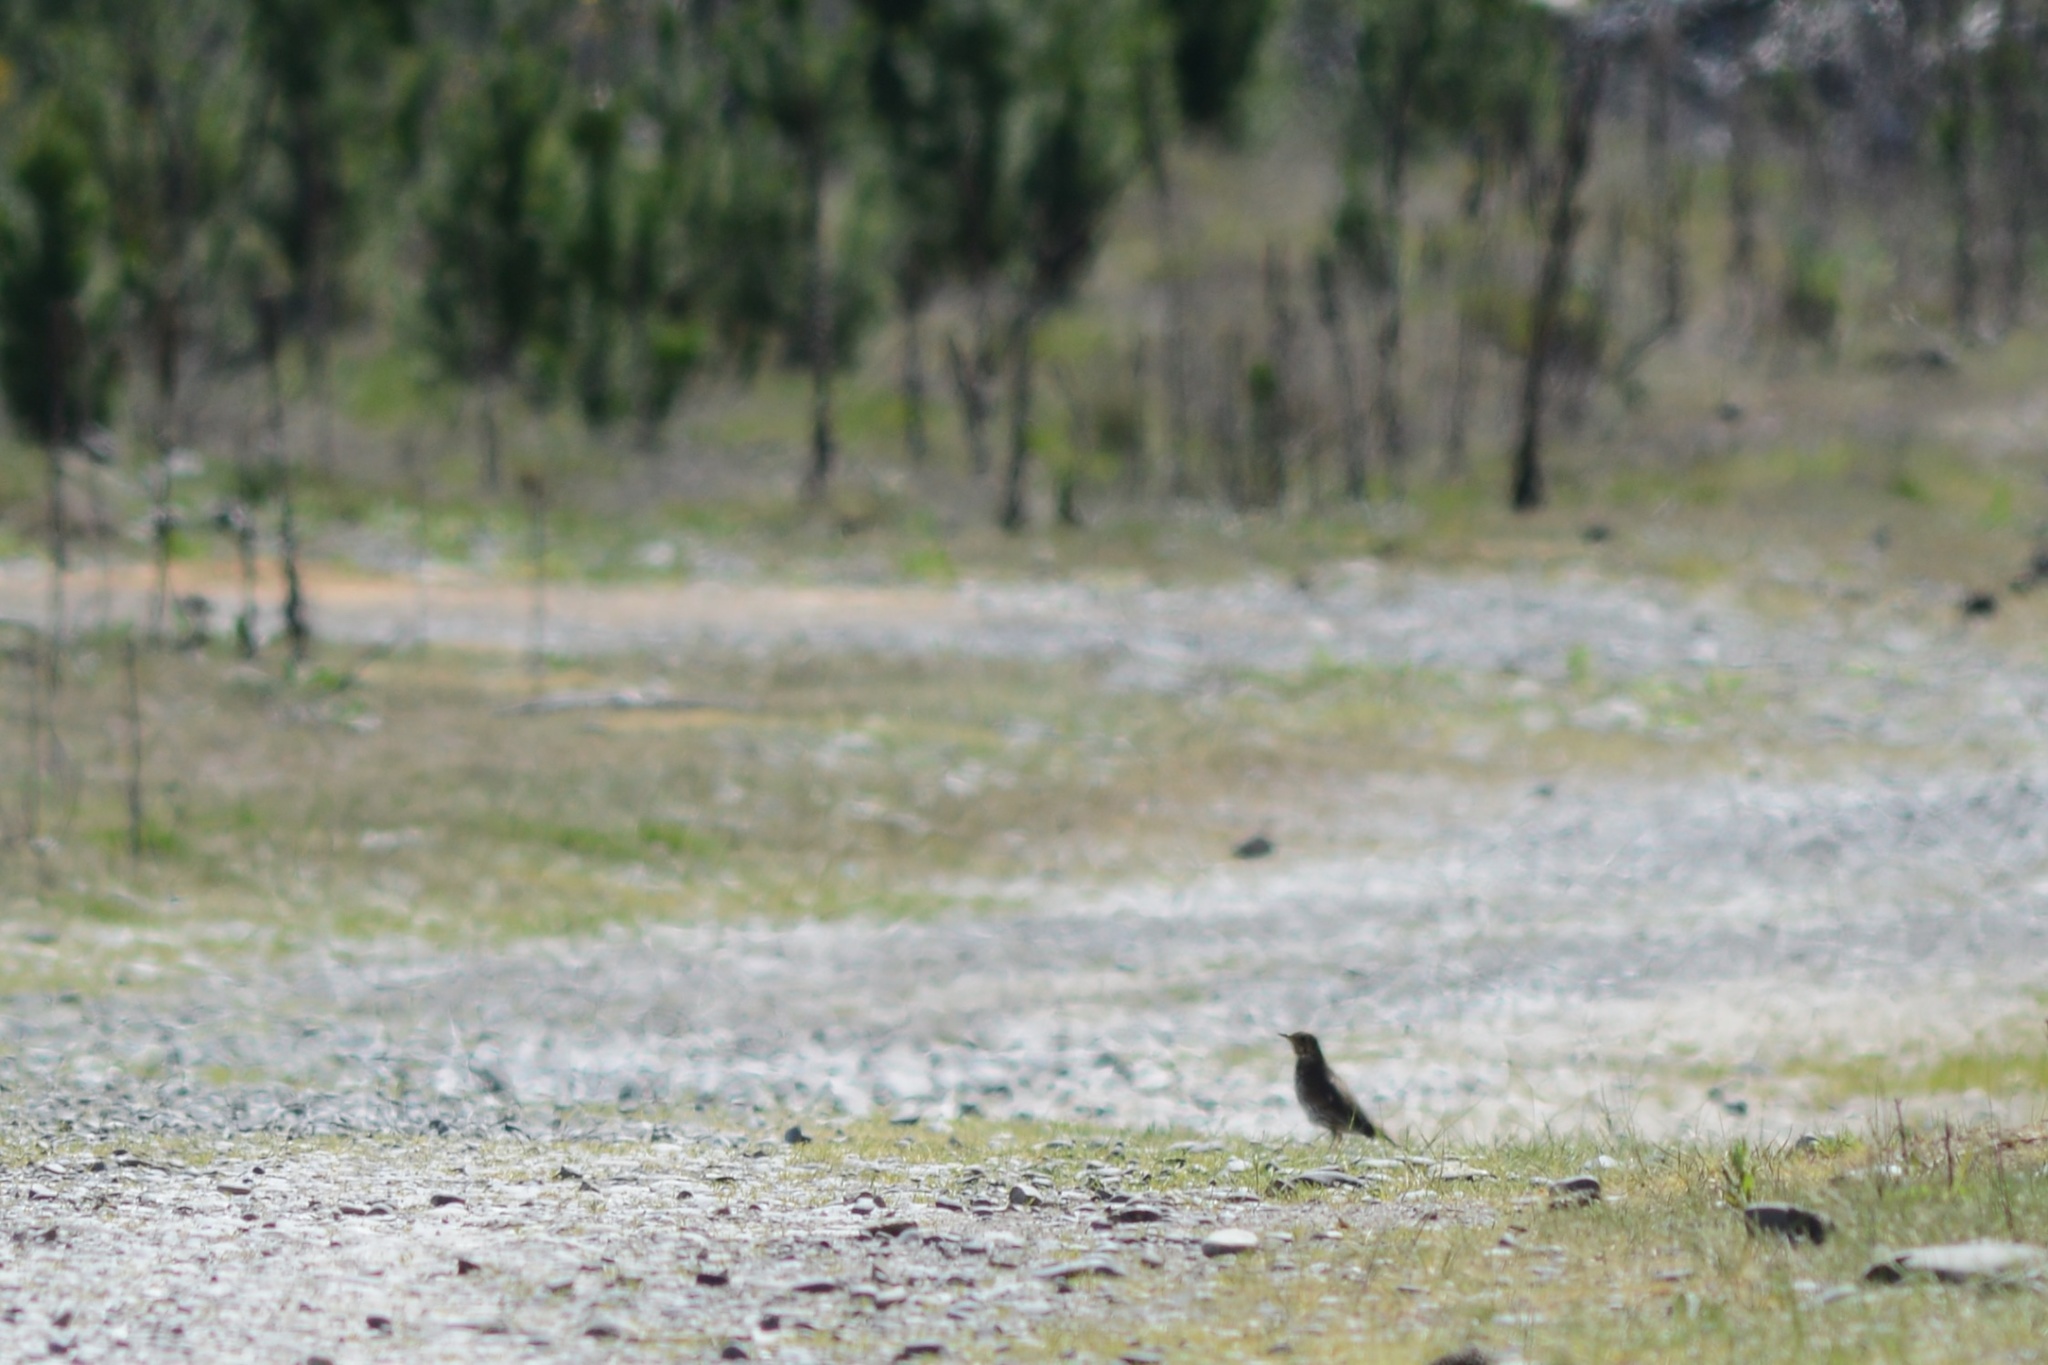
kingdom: Animalia
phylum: Chordata
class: Aves
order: Passeriformes
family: Turdidae
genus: Turdus
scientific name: Turdus philomelos
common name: Song thrush
